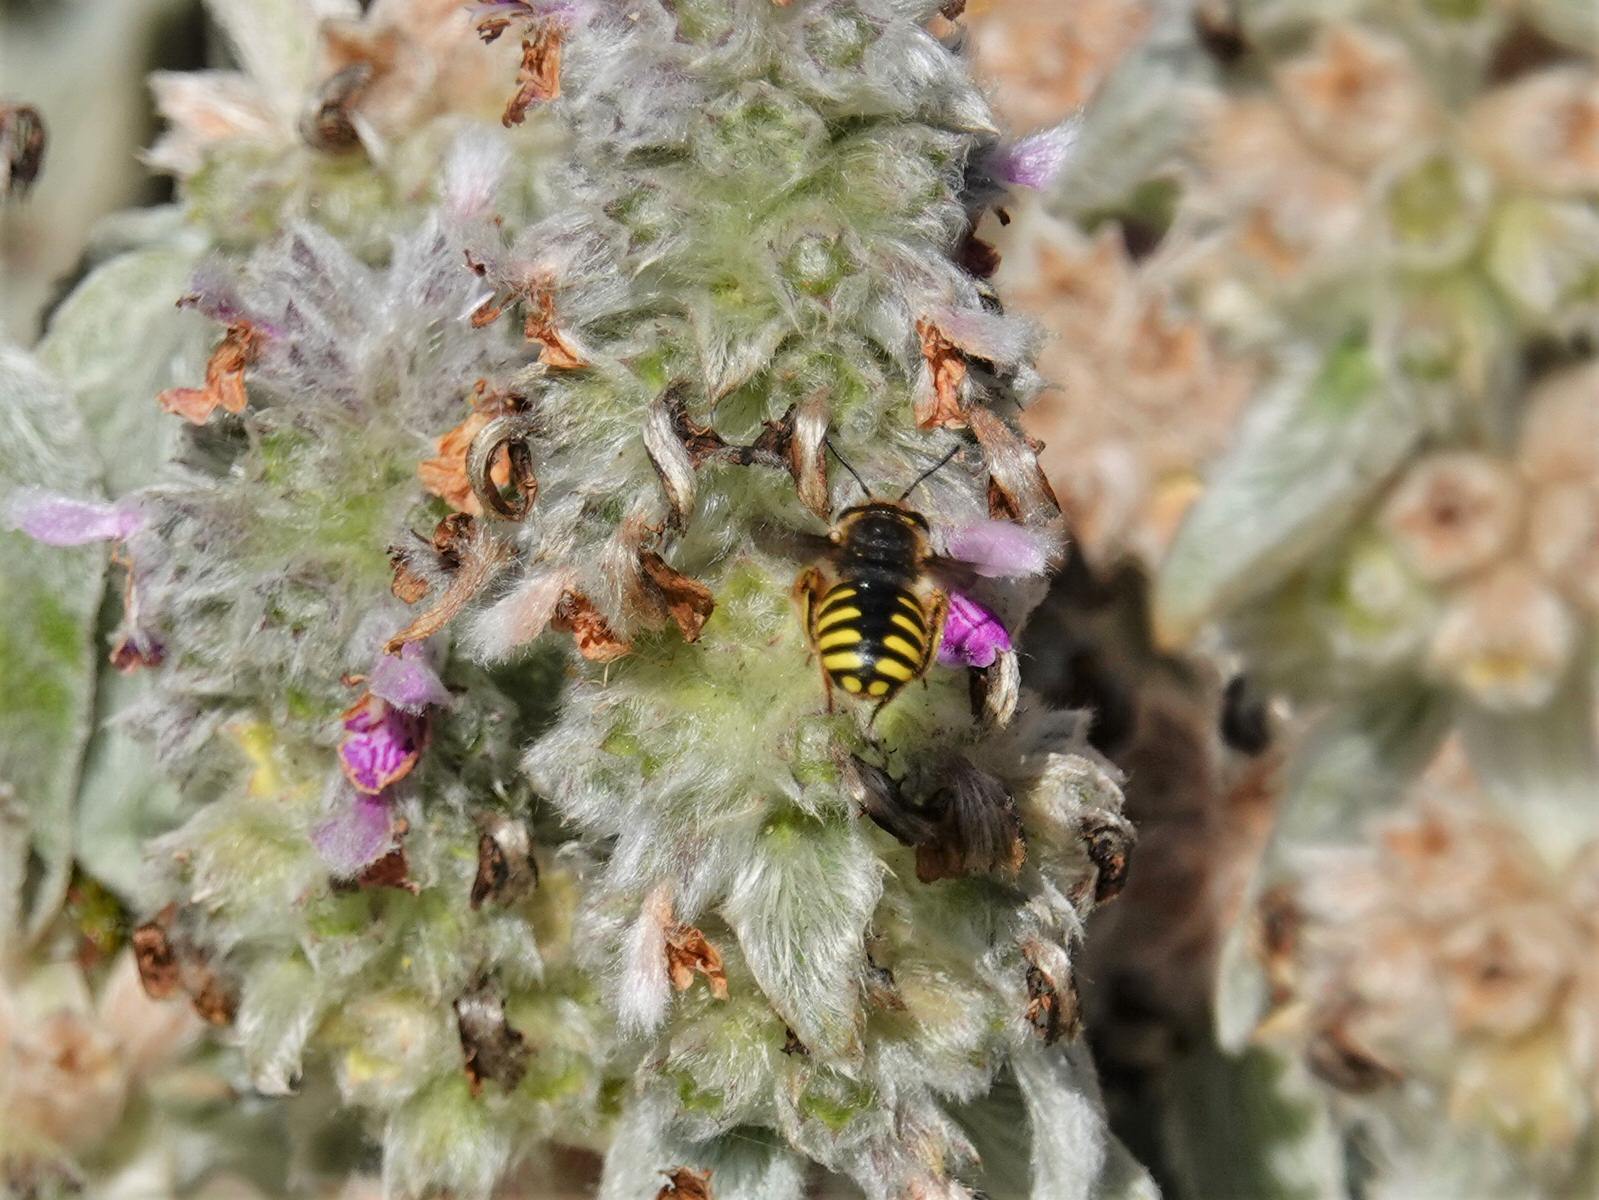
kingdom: Animalia
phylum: Arthropoda
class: Insecta
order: Hymenoptera
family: Megachilidae
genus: Anthidium
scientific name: Anthidium manicatum
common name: Wool carder bee
